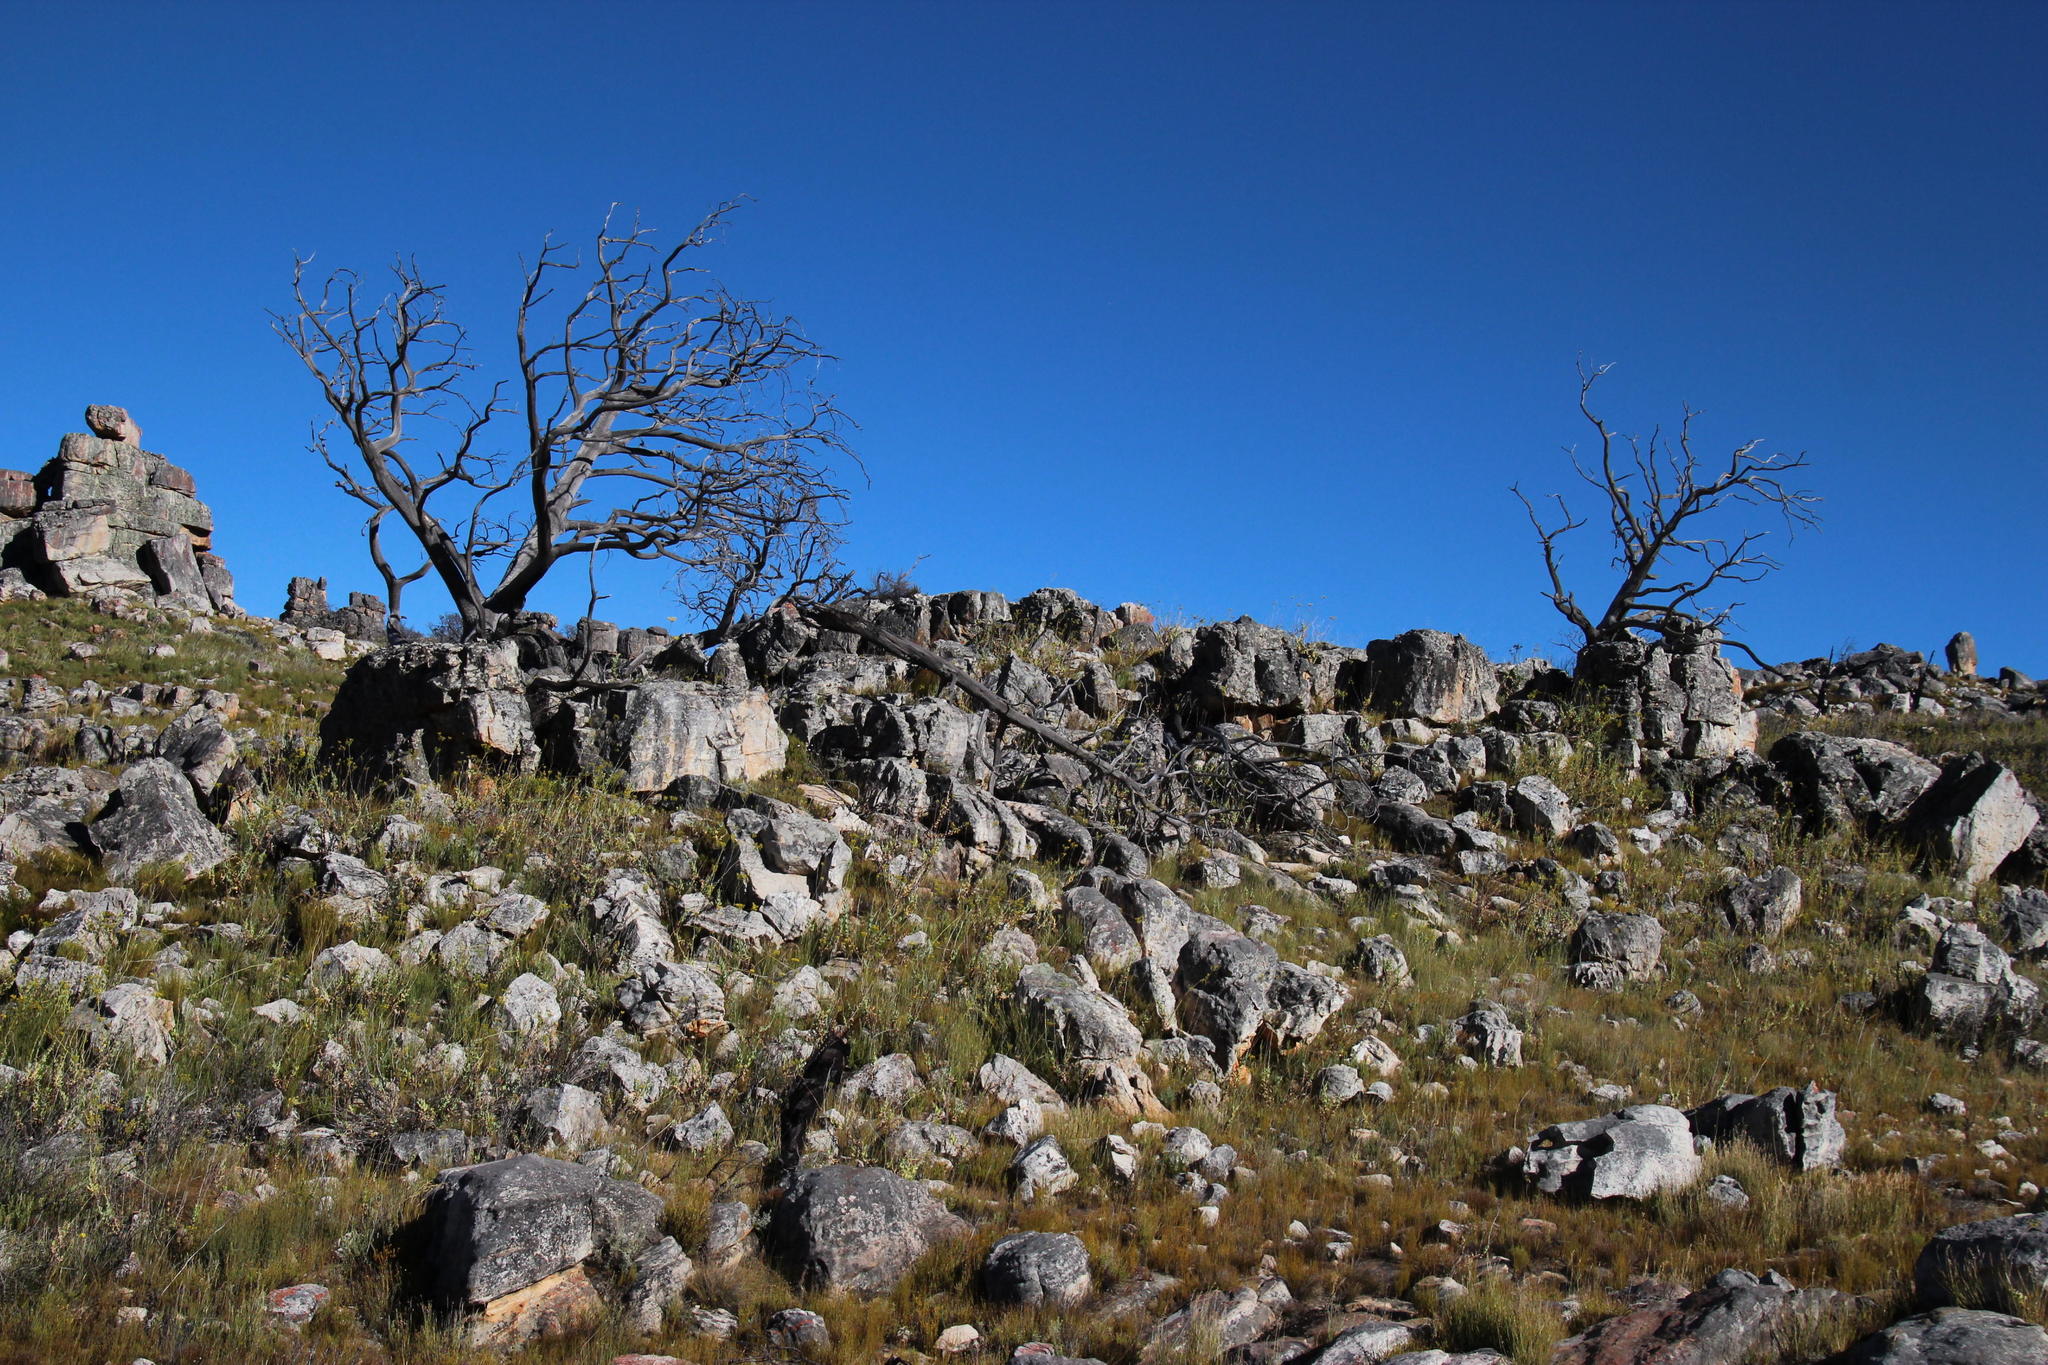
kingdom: Plantae
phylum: Tracheophyta
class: Pinopsida
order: Pinales
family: Cupressaceae
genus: Widdringtonia
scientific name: Widdringtonia nodiflora
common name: Cape cypress
